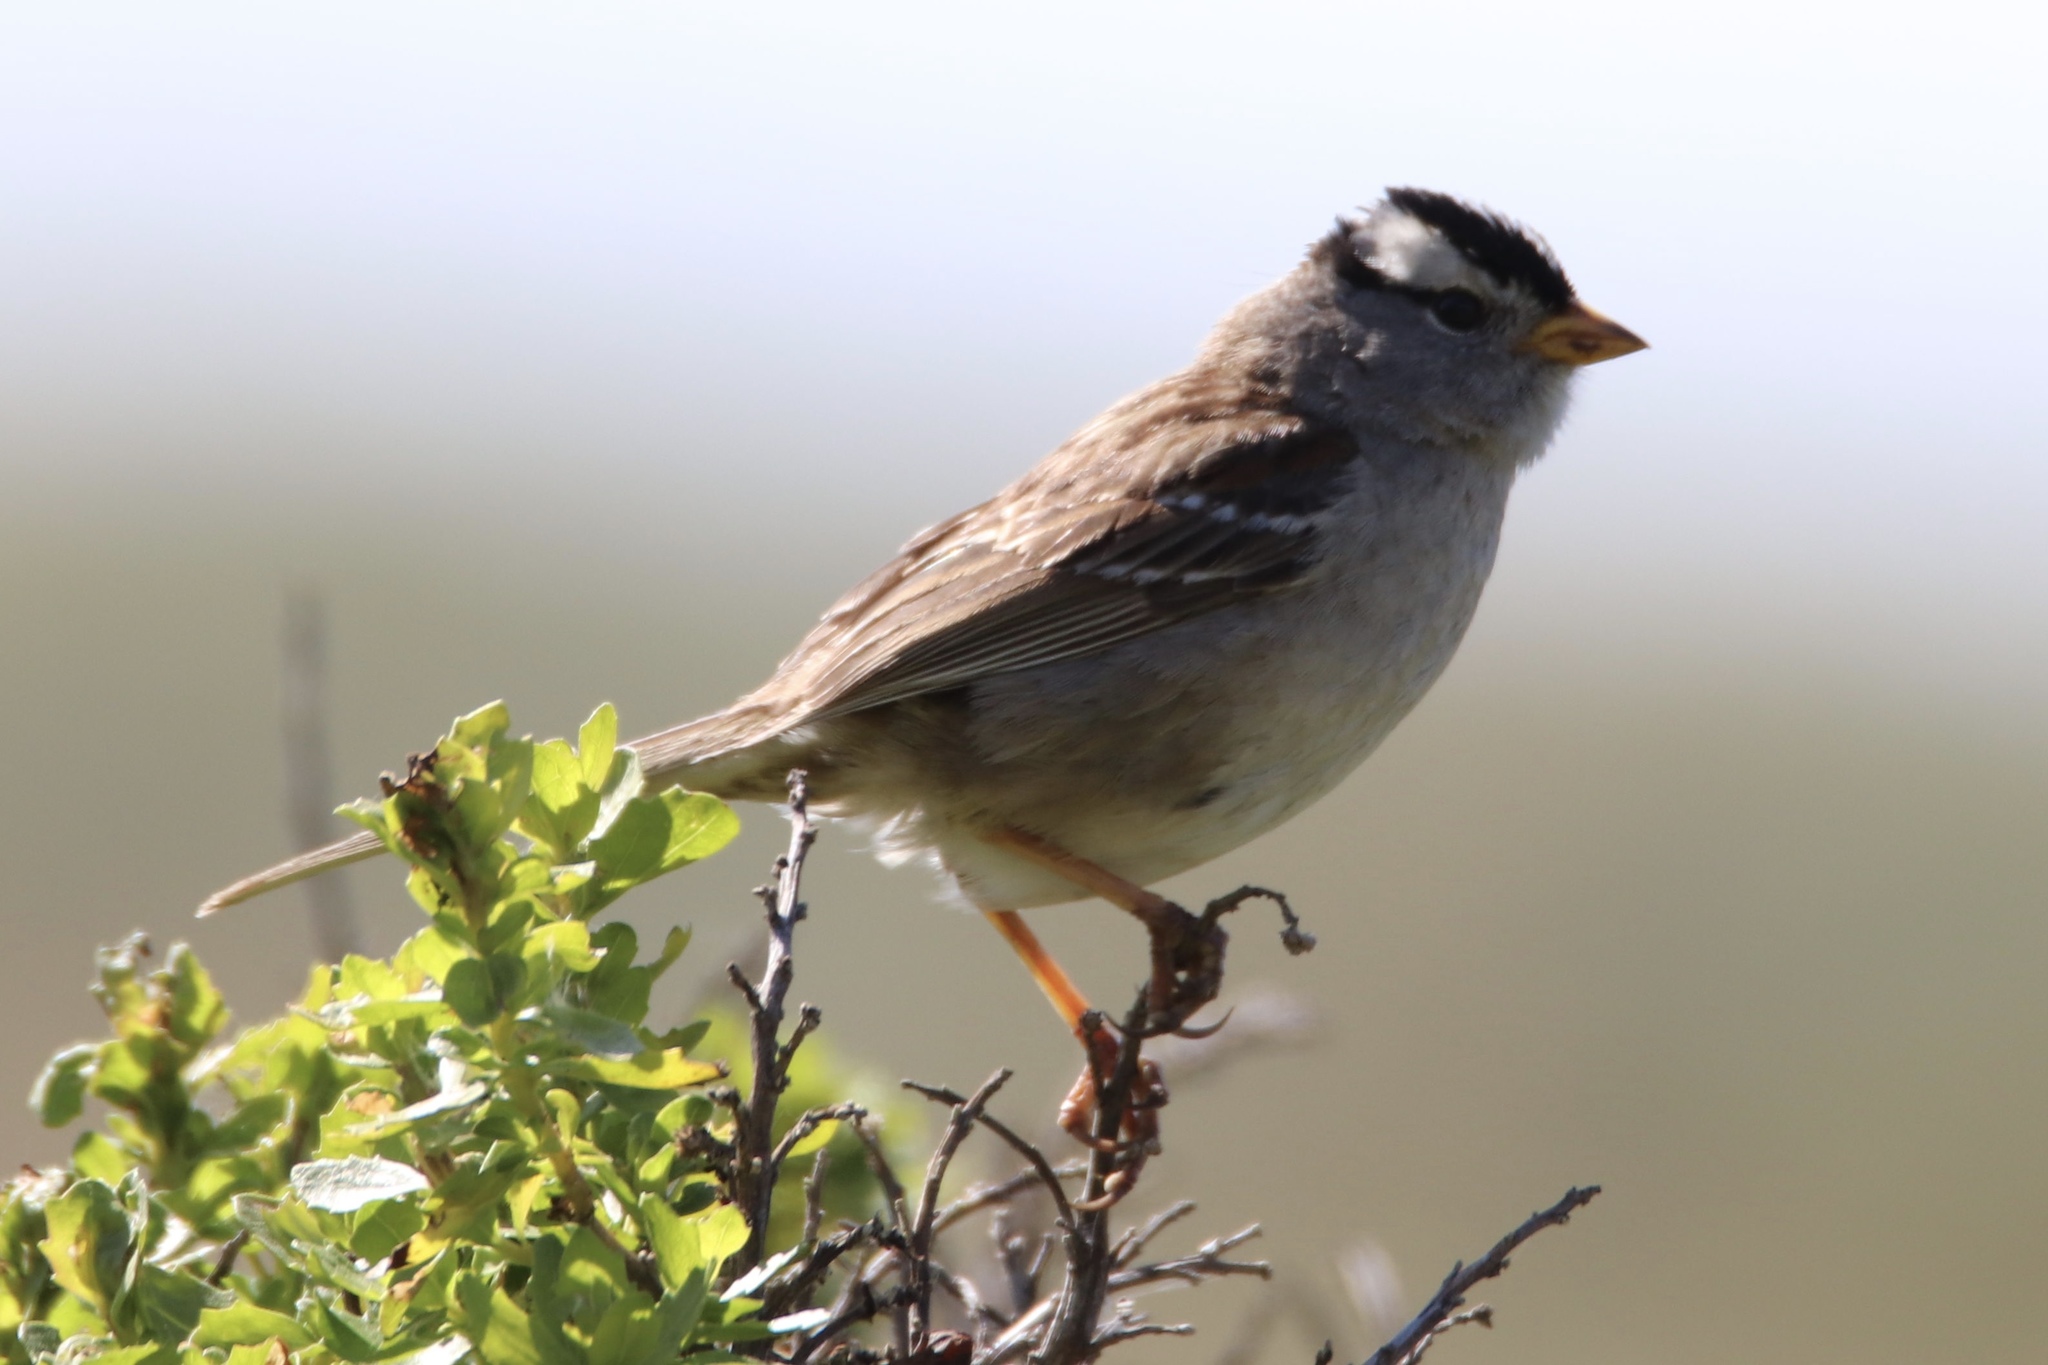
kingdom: Animalia
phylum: Chordata
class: Aves
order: Passeriformes
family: Passerellidae
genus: Zonotrichia
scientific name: Zonotrichia leucophrys
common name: White-crowned sparrow
